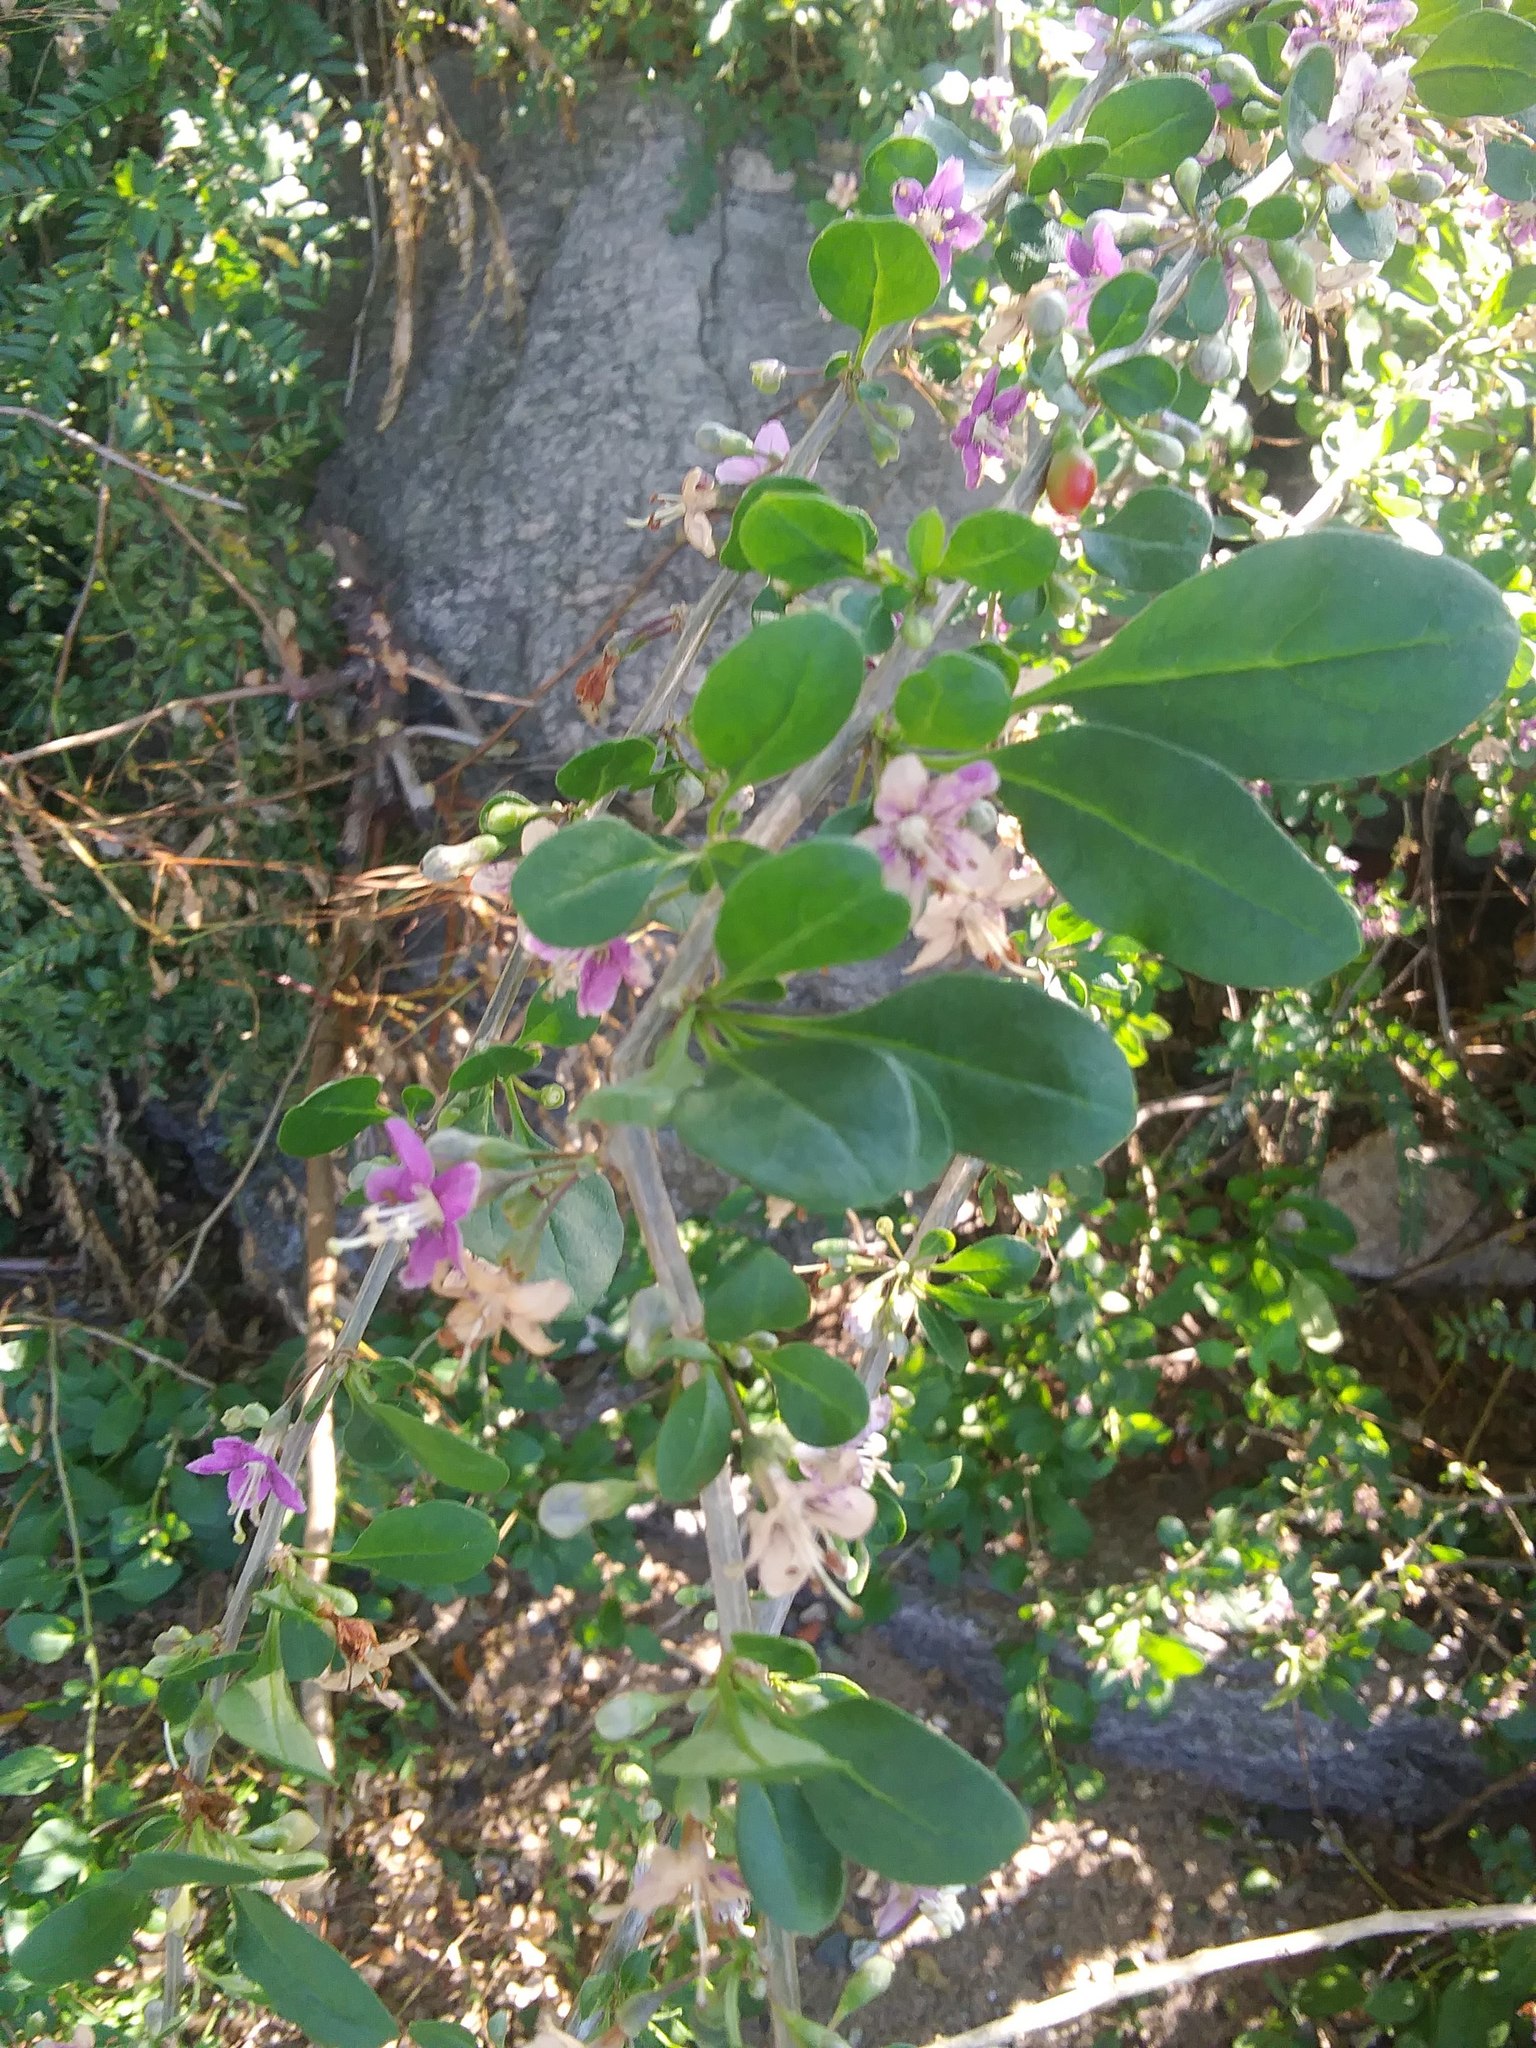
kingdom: Plantae
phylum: Tracheophyta
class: Magnoliopsida
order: Solanales
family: Solanaceae
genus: Lycium
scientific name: Lycium barbarum
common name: Duke of argyll's teaplant
